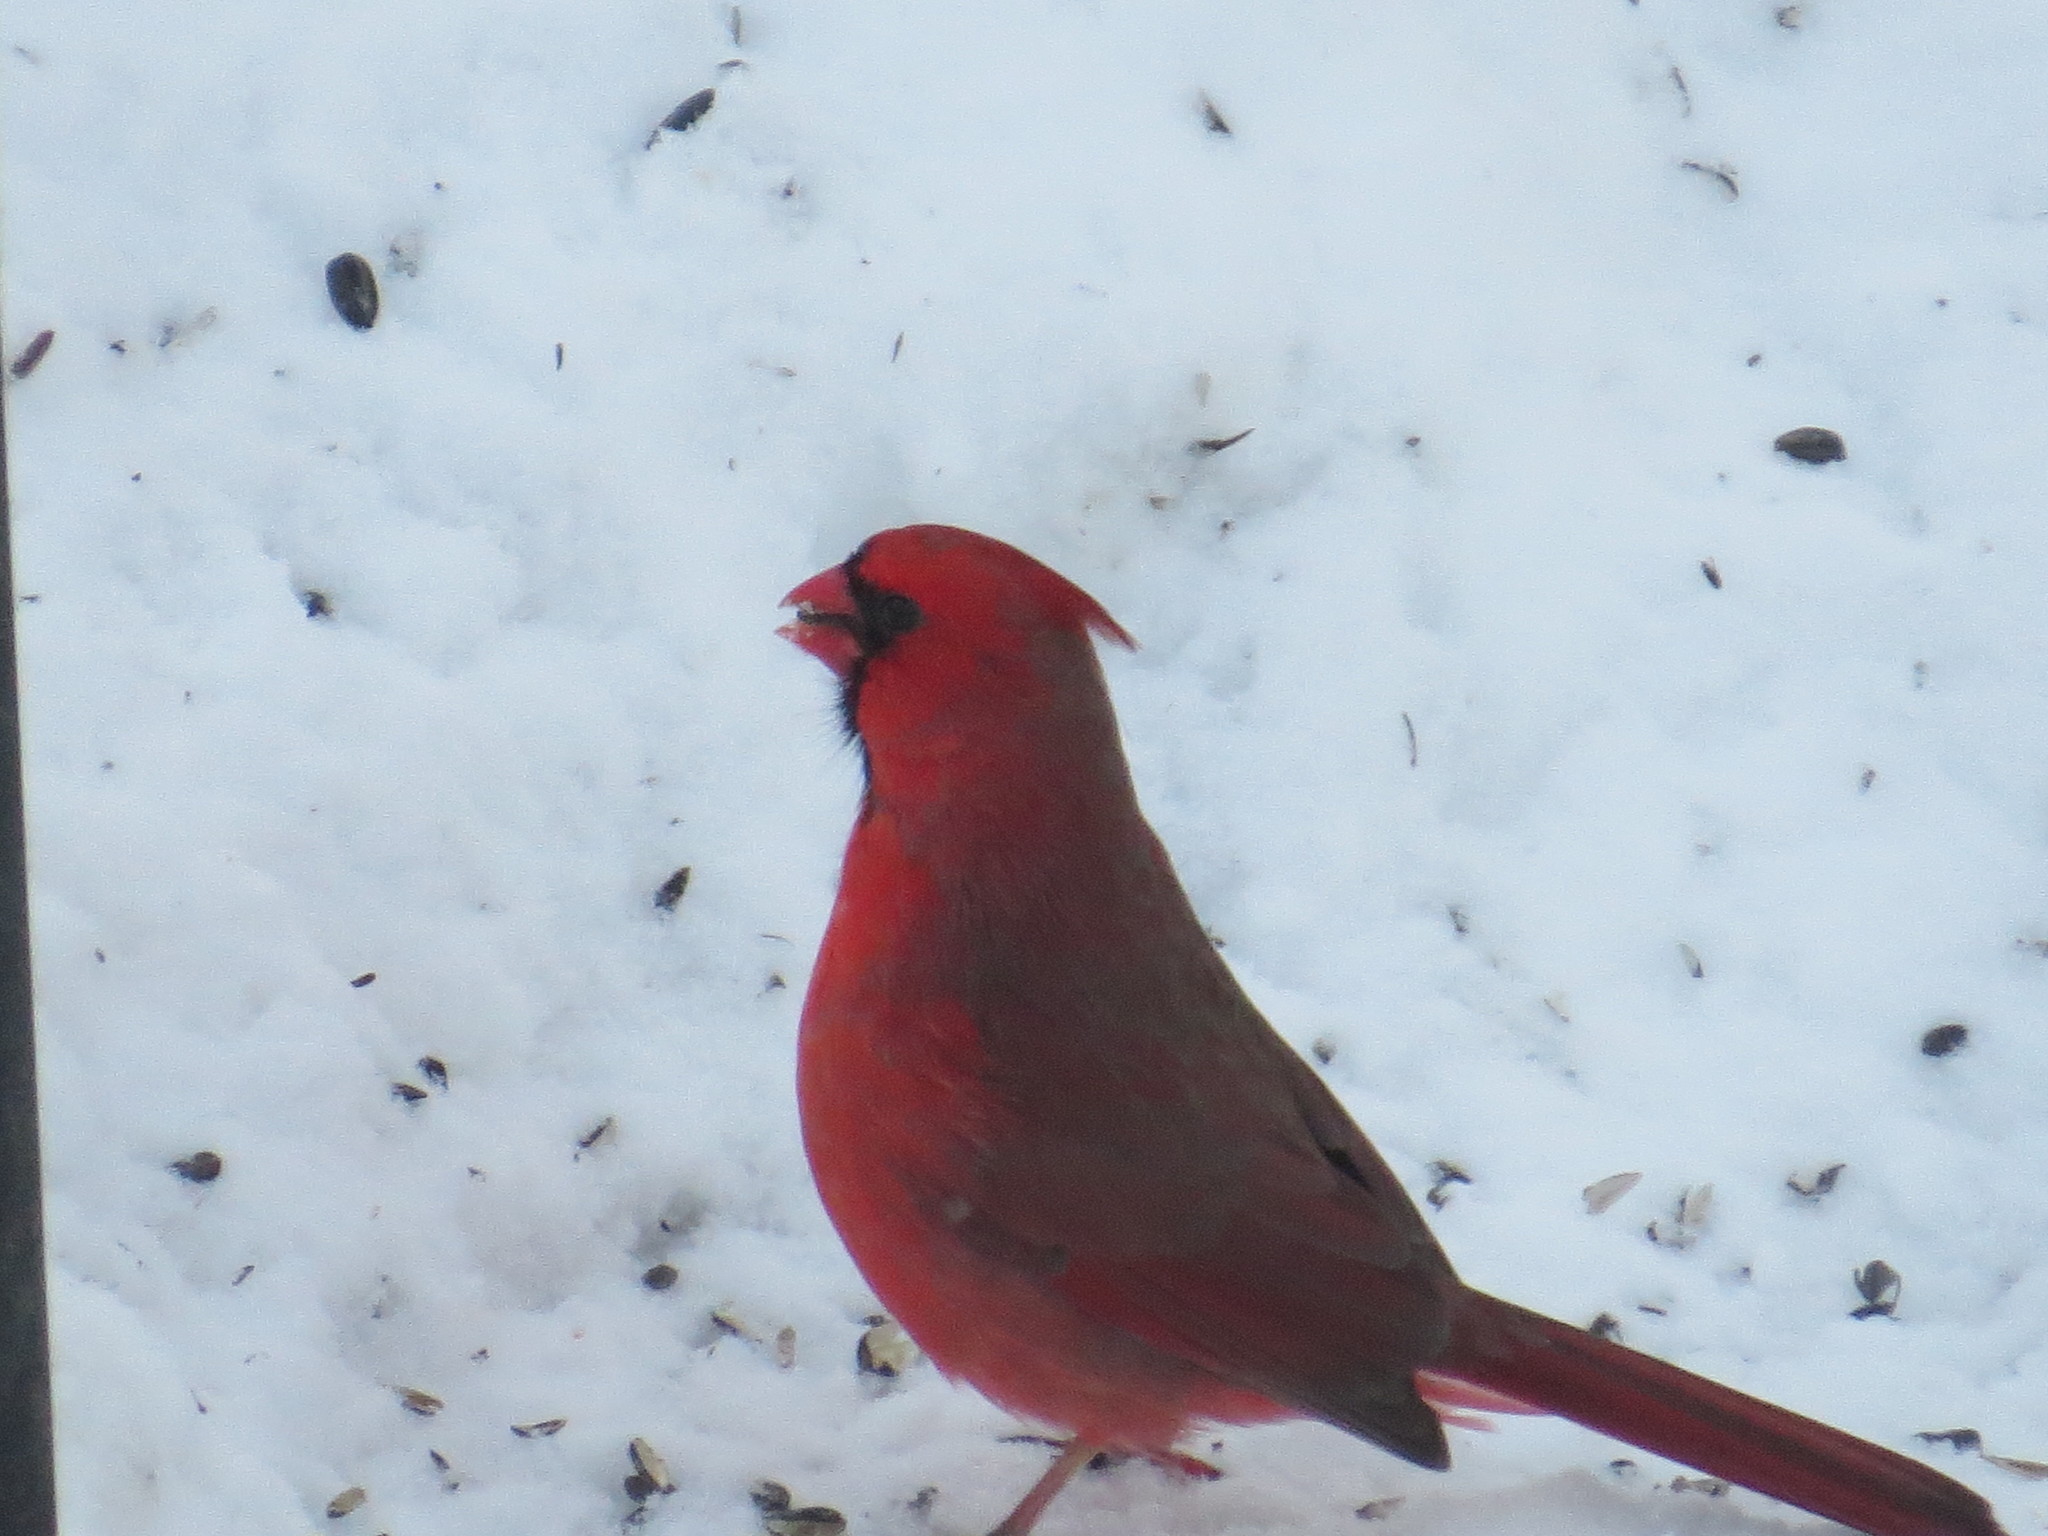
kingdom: Animalia
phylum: Chordata
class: Aves
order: Passeriformes
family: Cardinalidae
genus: Cardinalis
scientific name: Cardinalis cardinalis
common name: Northern cardinal
